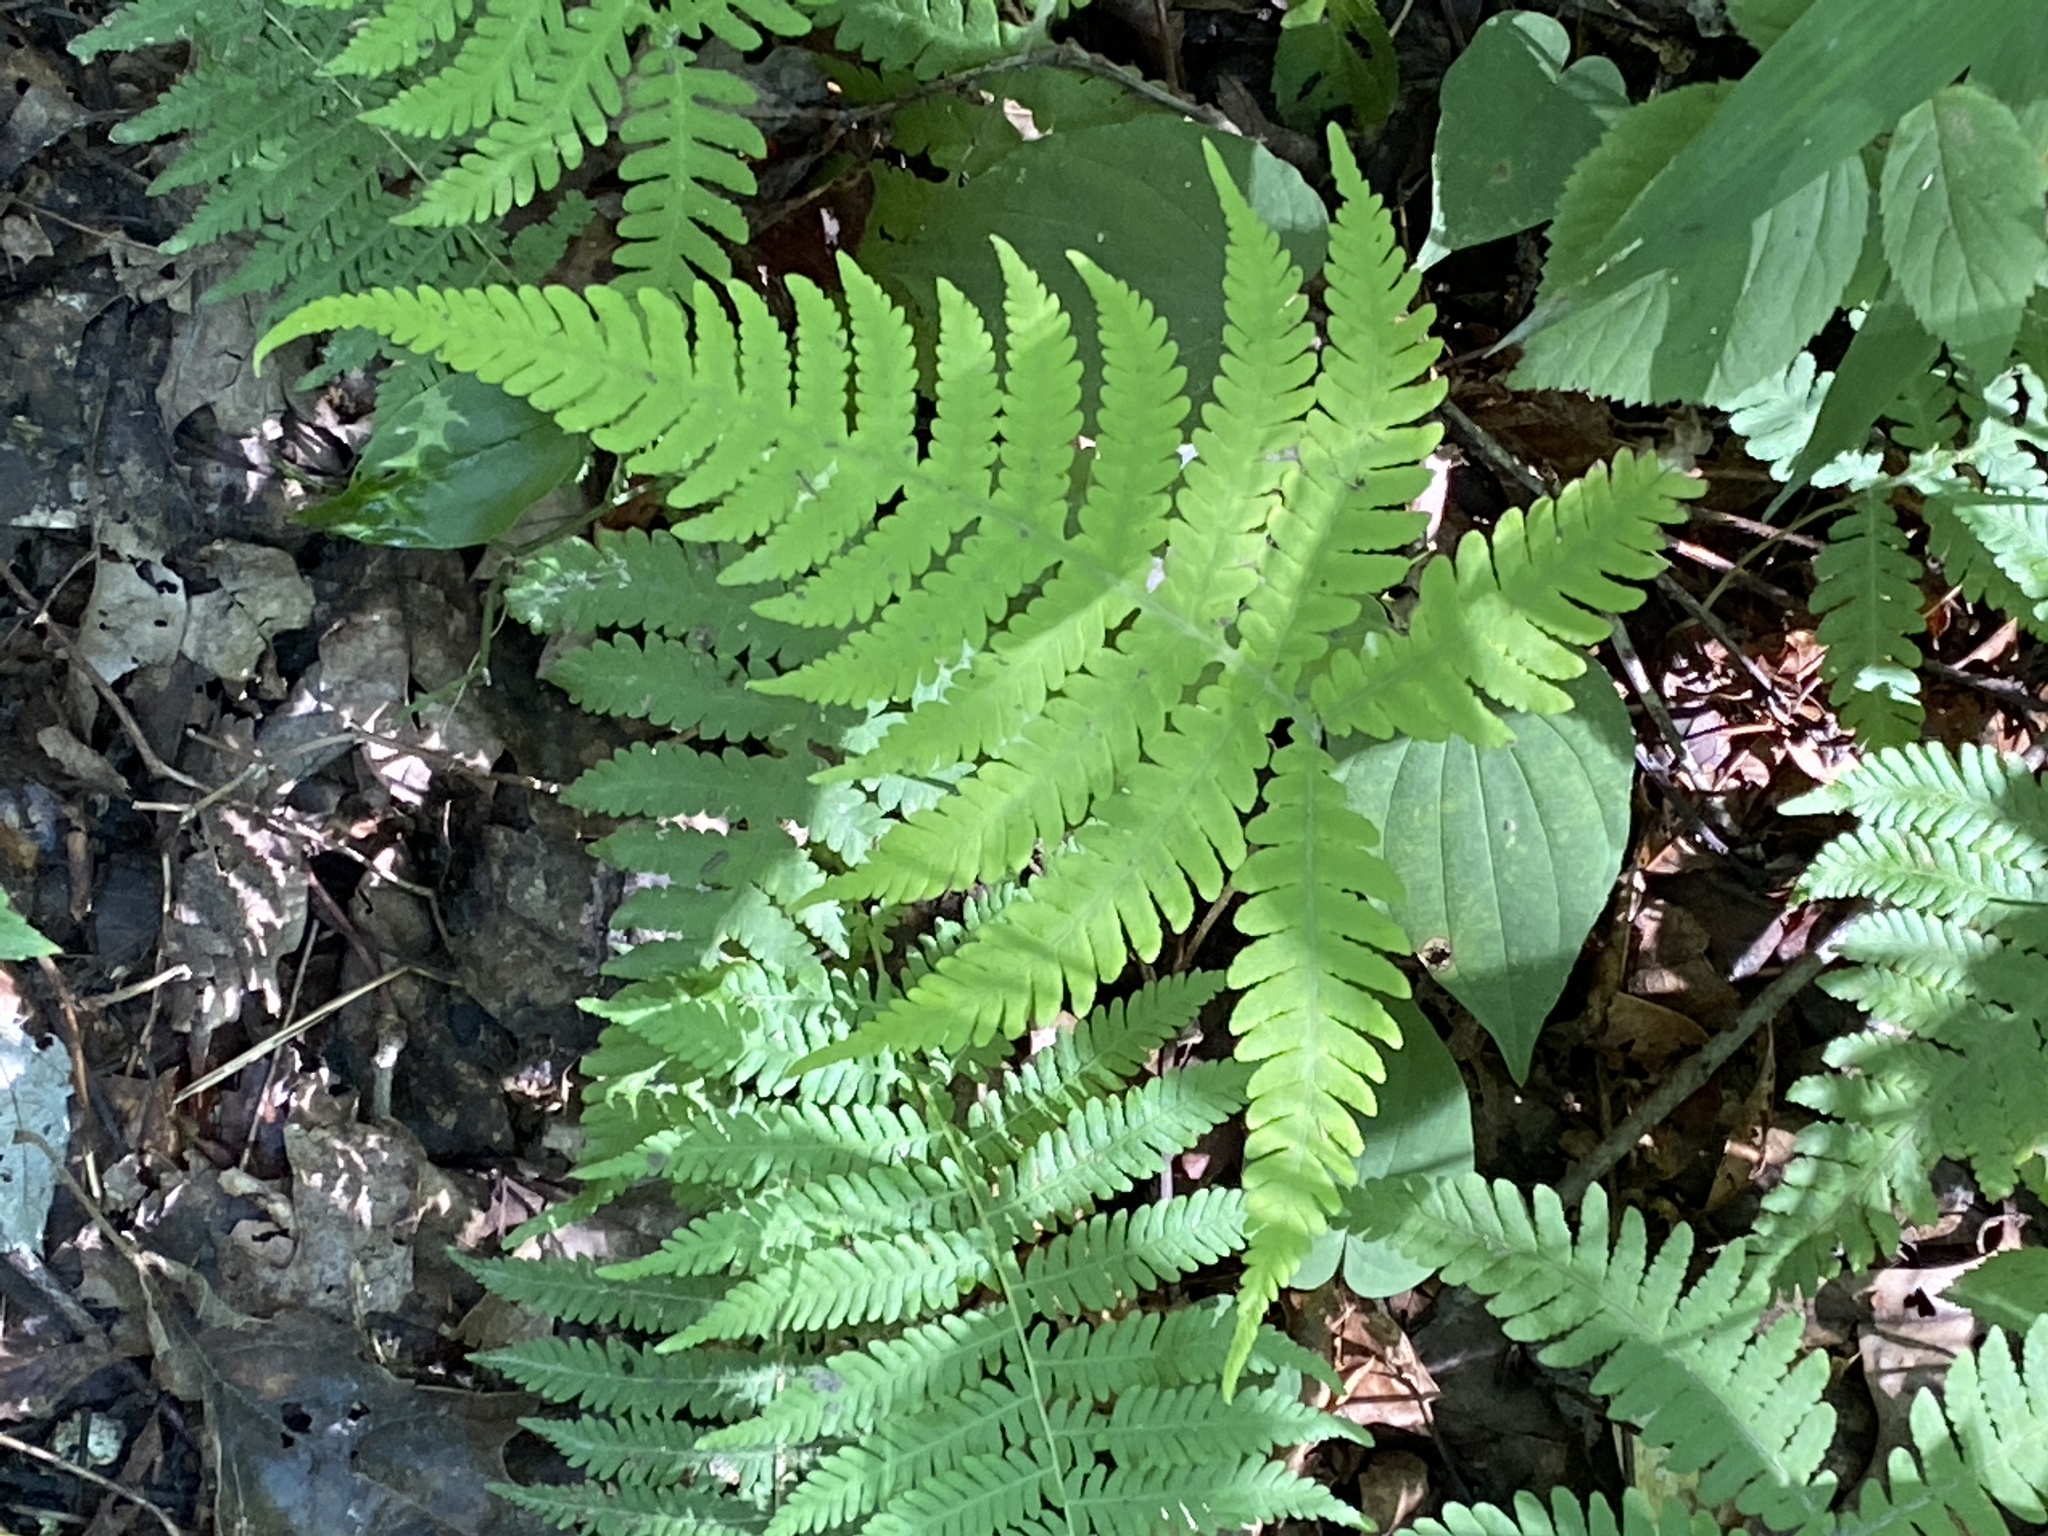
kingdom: Plantae
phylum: Tracheophyta
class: Polypodiopsida
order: Polypodiales
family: Thelypteridaceae
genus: Phegopteris
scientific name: Phegopteris hexagonoptera
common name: Broad beech fern
